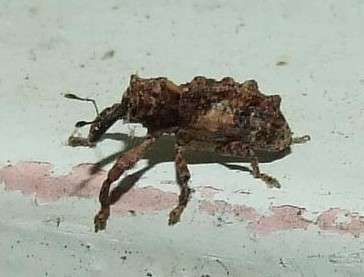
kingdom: Animalia
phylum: Arthropoda
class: Insecta
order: Coleoptera
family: Curculionidae
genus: Orthorhinus
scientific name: Orthorhinus klugii
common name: Vine weevil
